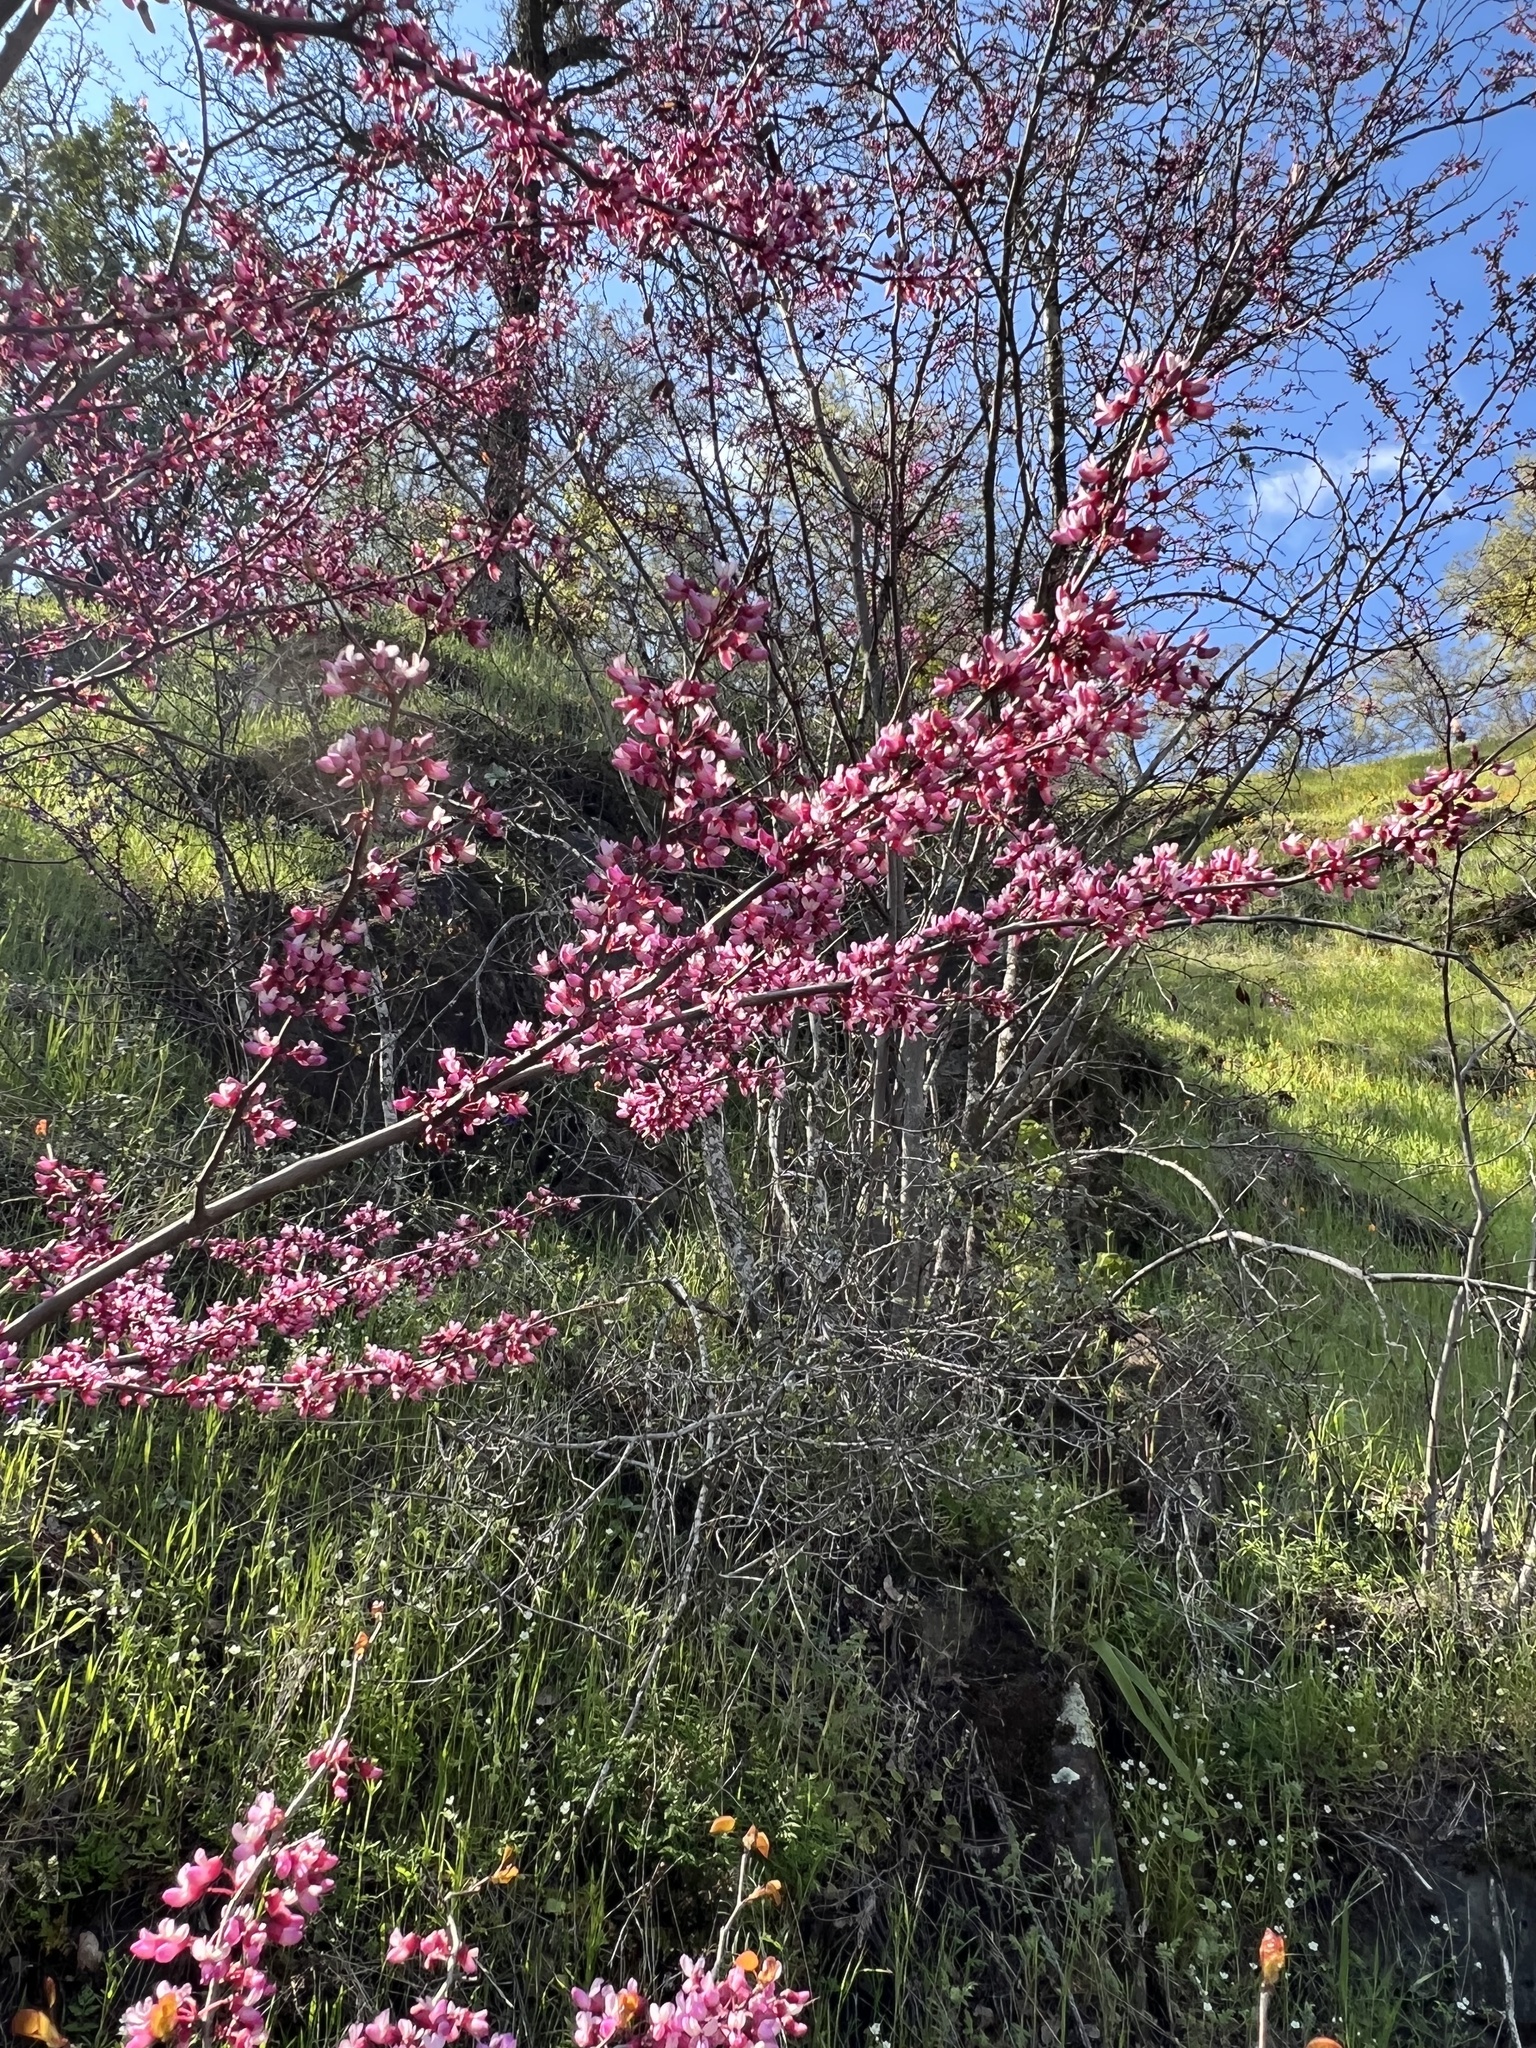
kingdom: Plantae
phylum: Tracheophyta
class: Magnoliopsida
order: Fabales
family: Fabaceae
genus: Cercis
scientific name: Cercis occidentalis
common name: California redbud
